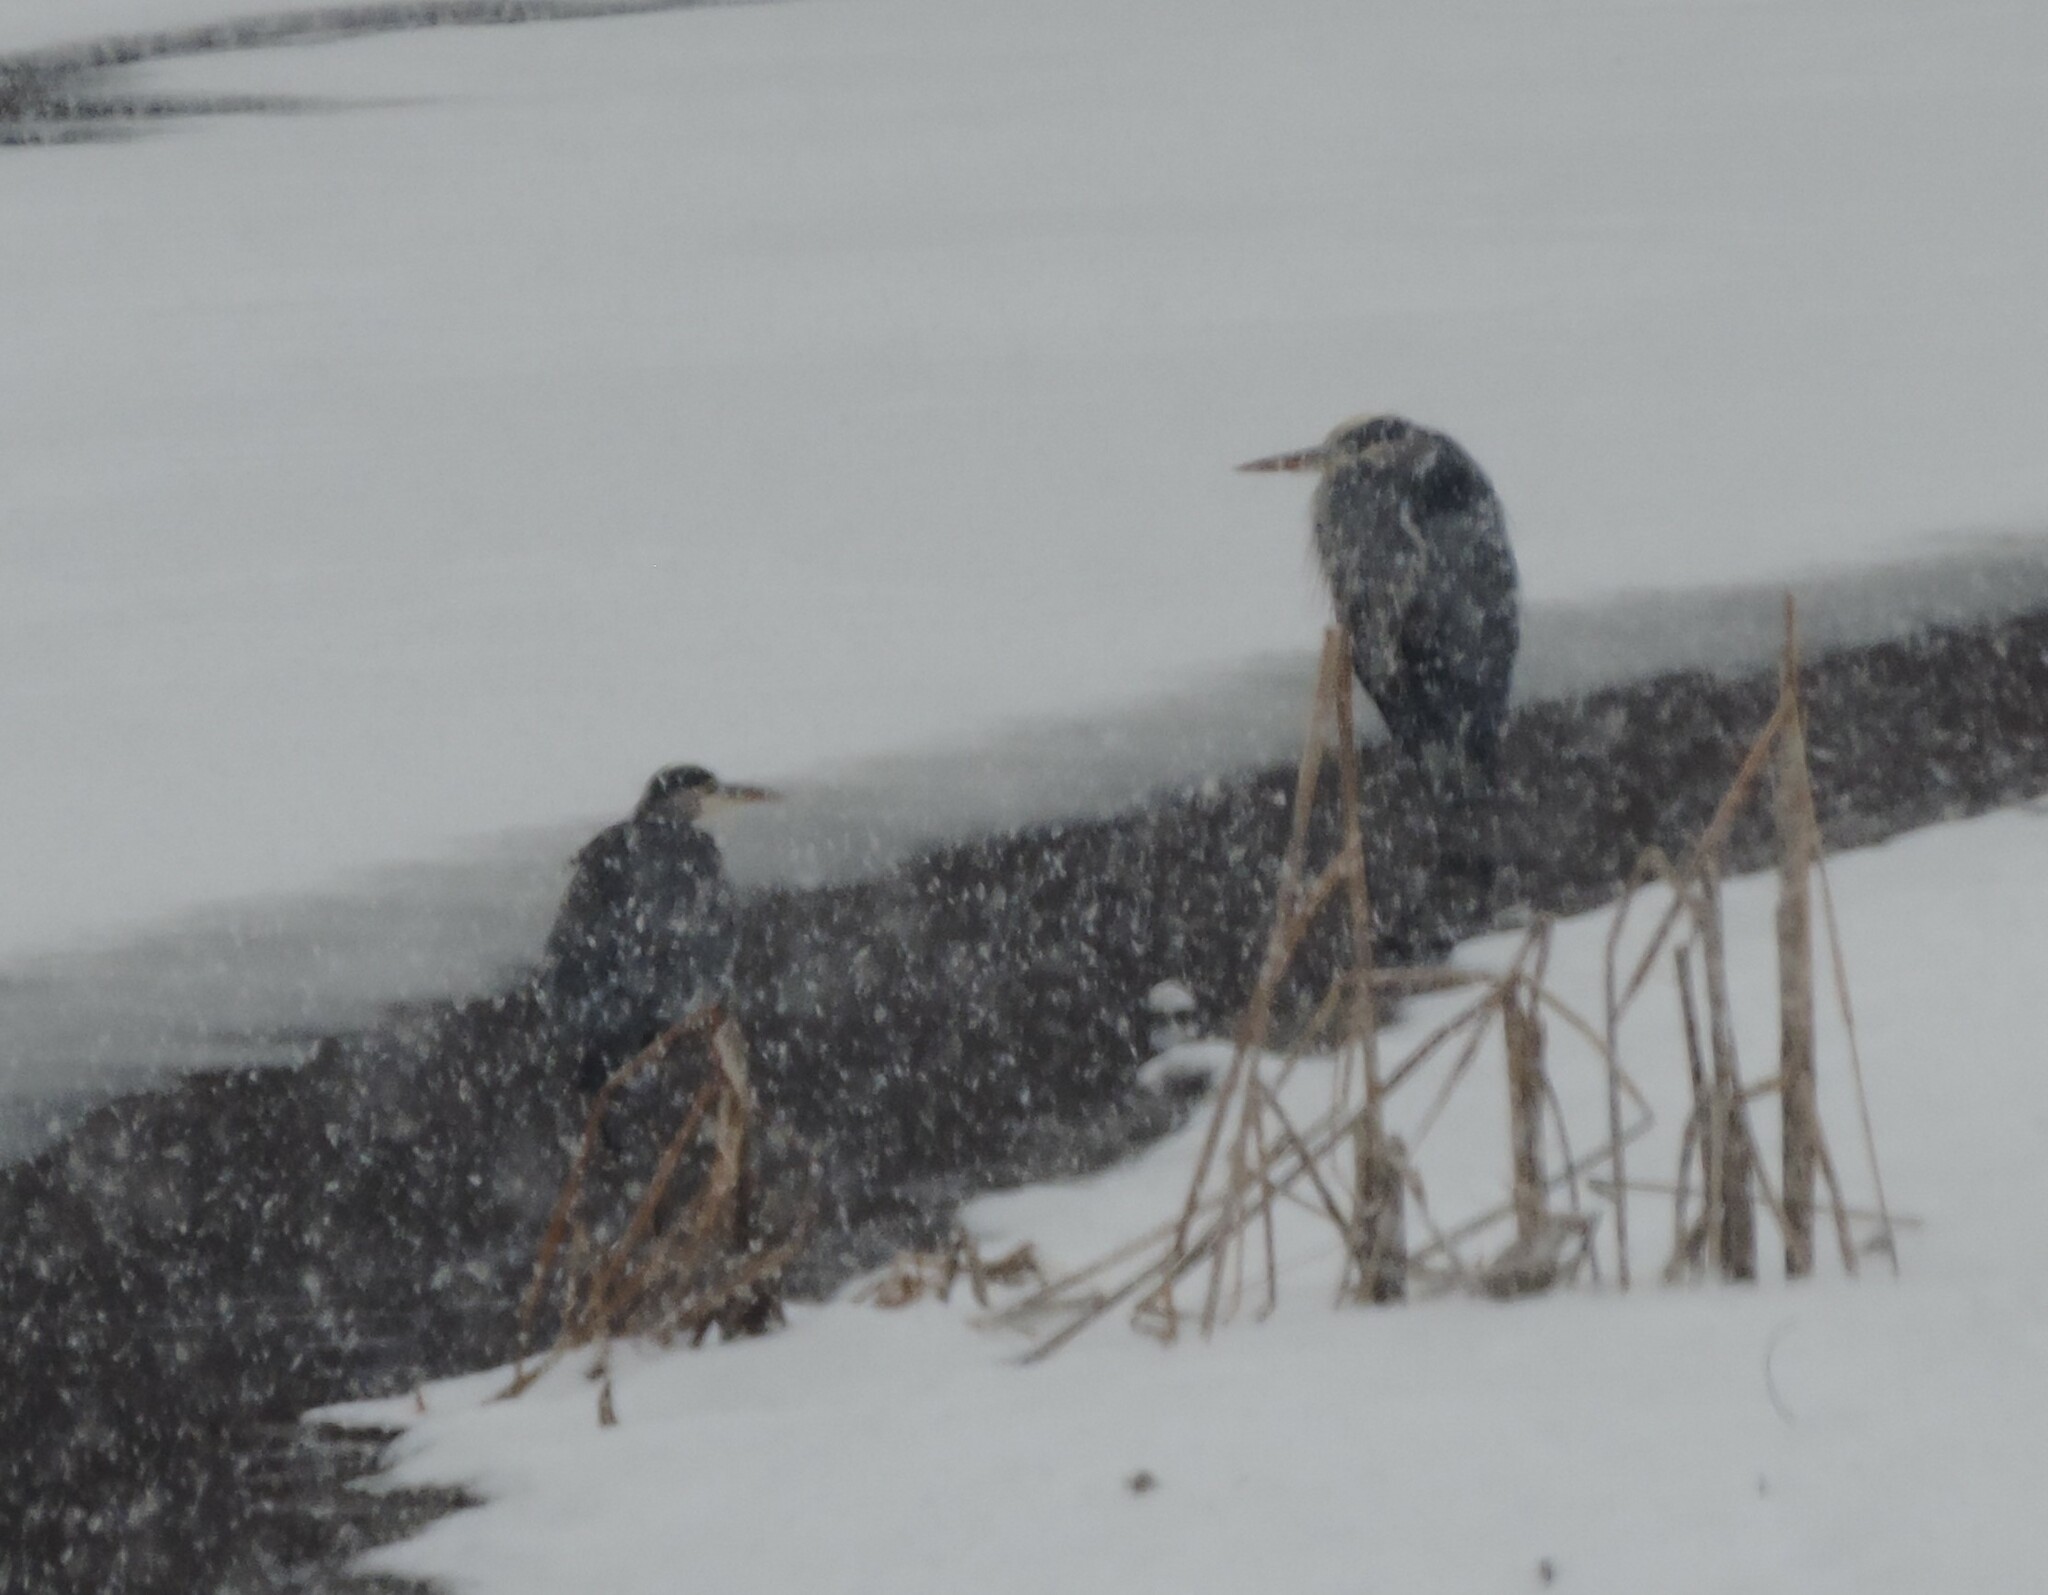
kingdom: Animalia
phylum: Chordata
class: Aves
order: Pelecaniformes
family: Ardeidae
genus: Ardea
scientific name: Ardea herodias
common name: Great blue heron
